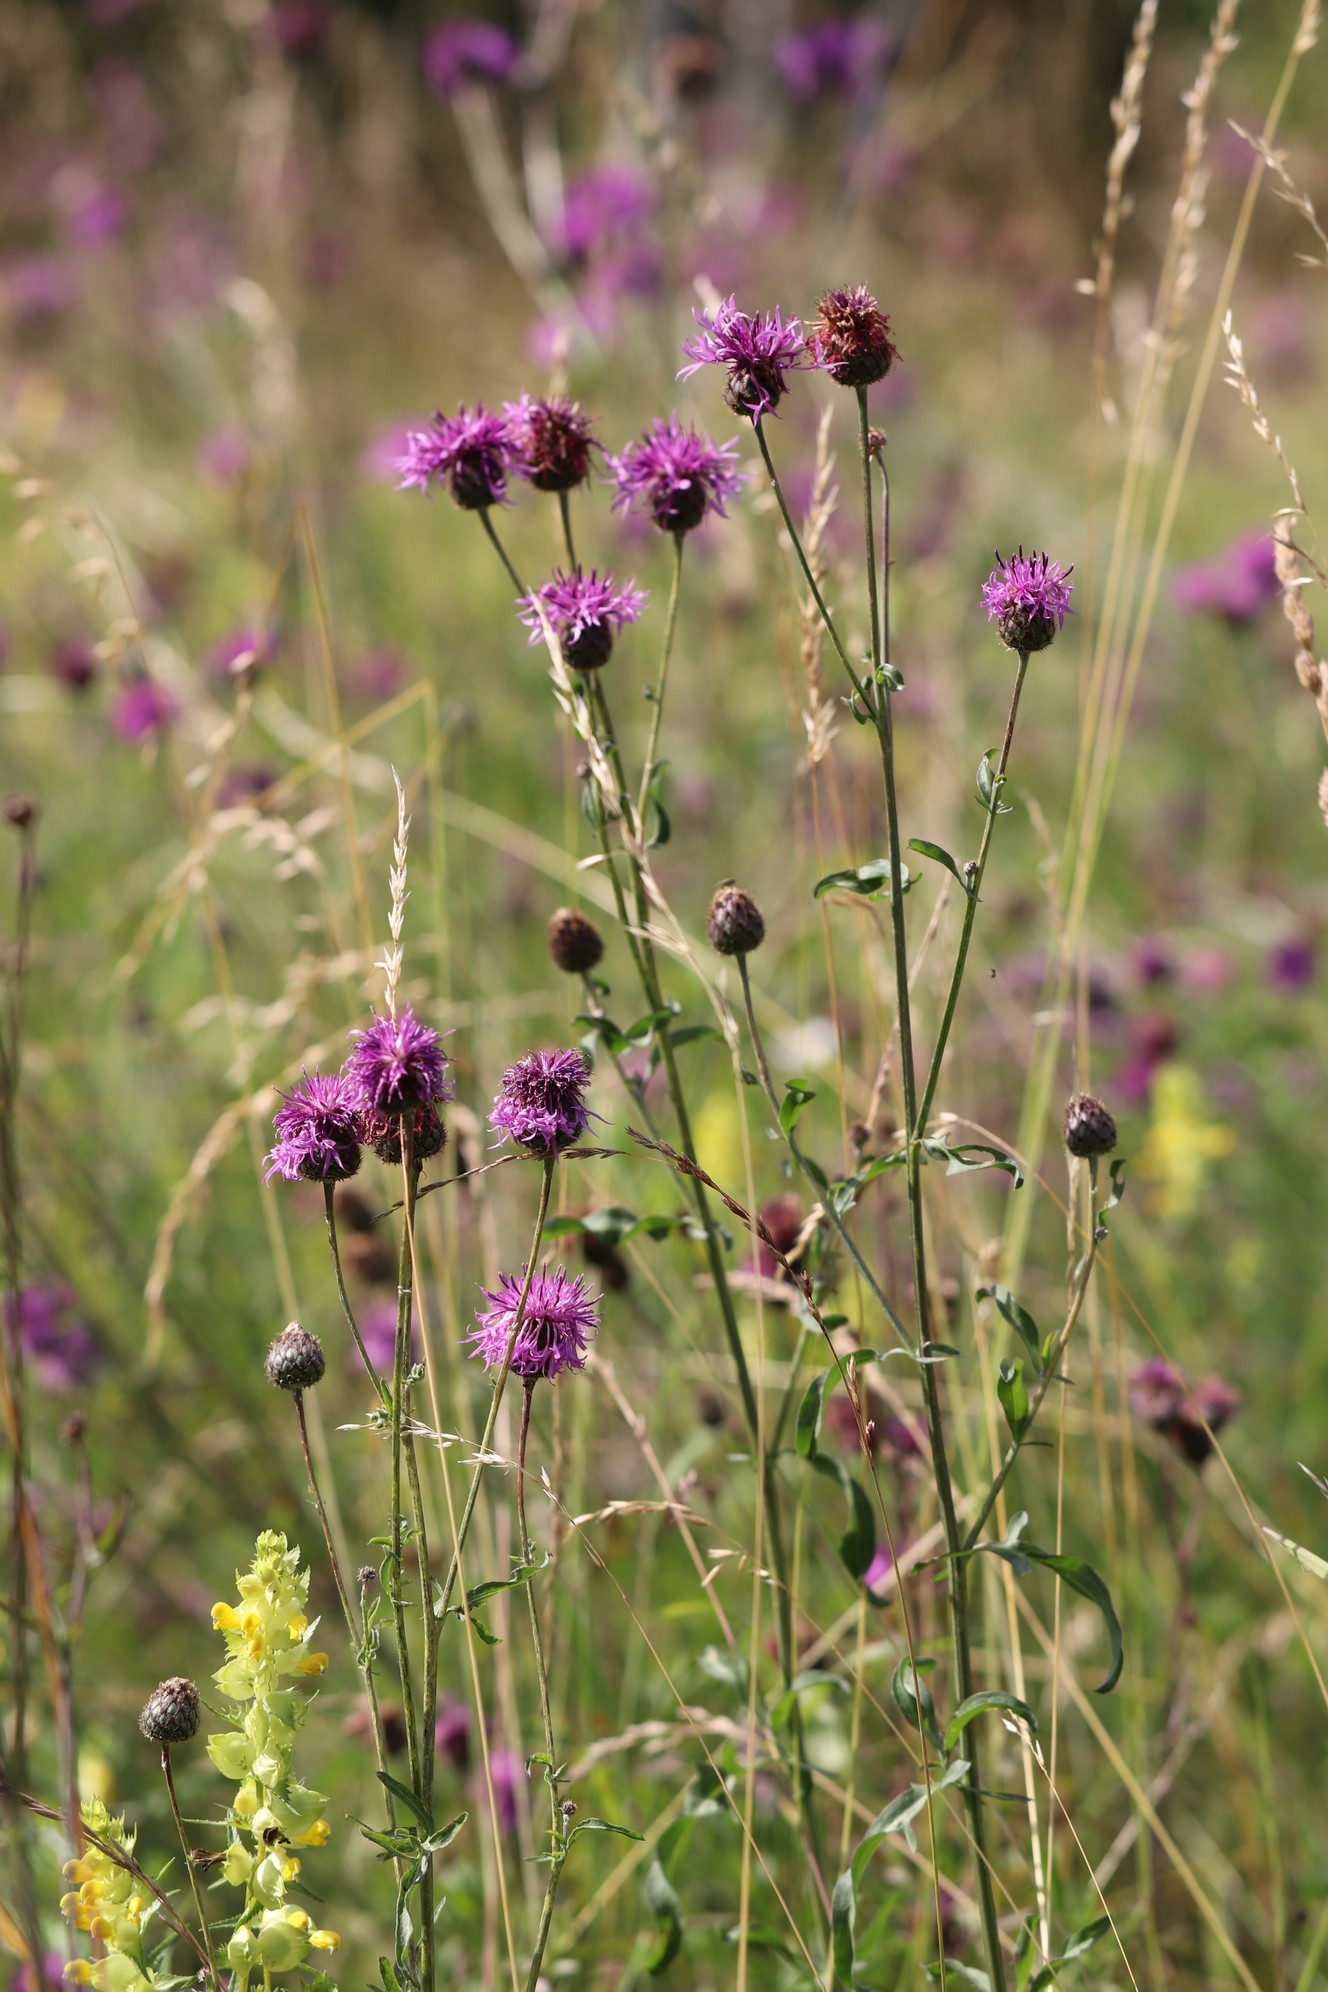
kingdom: Plantae
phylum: Tracheophyta
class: Magnoliopsida
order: Asterales
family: Asteraceae
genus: Centaurea
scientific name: Centaurea scabiosa
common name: Greater knapweed
